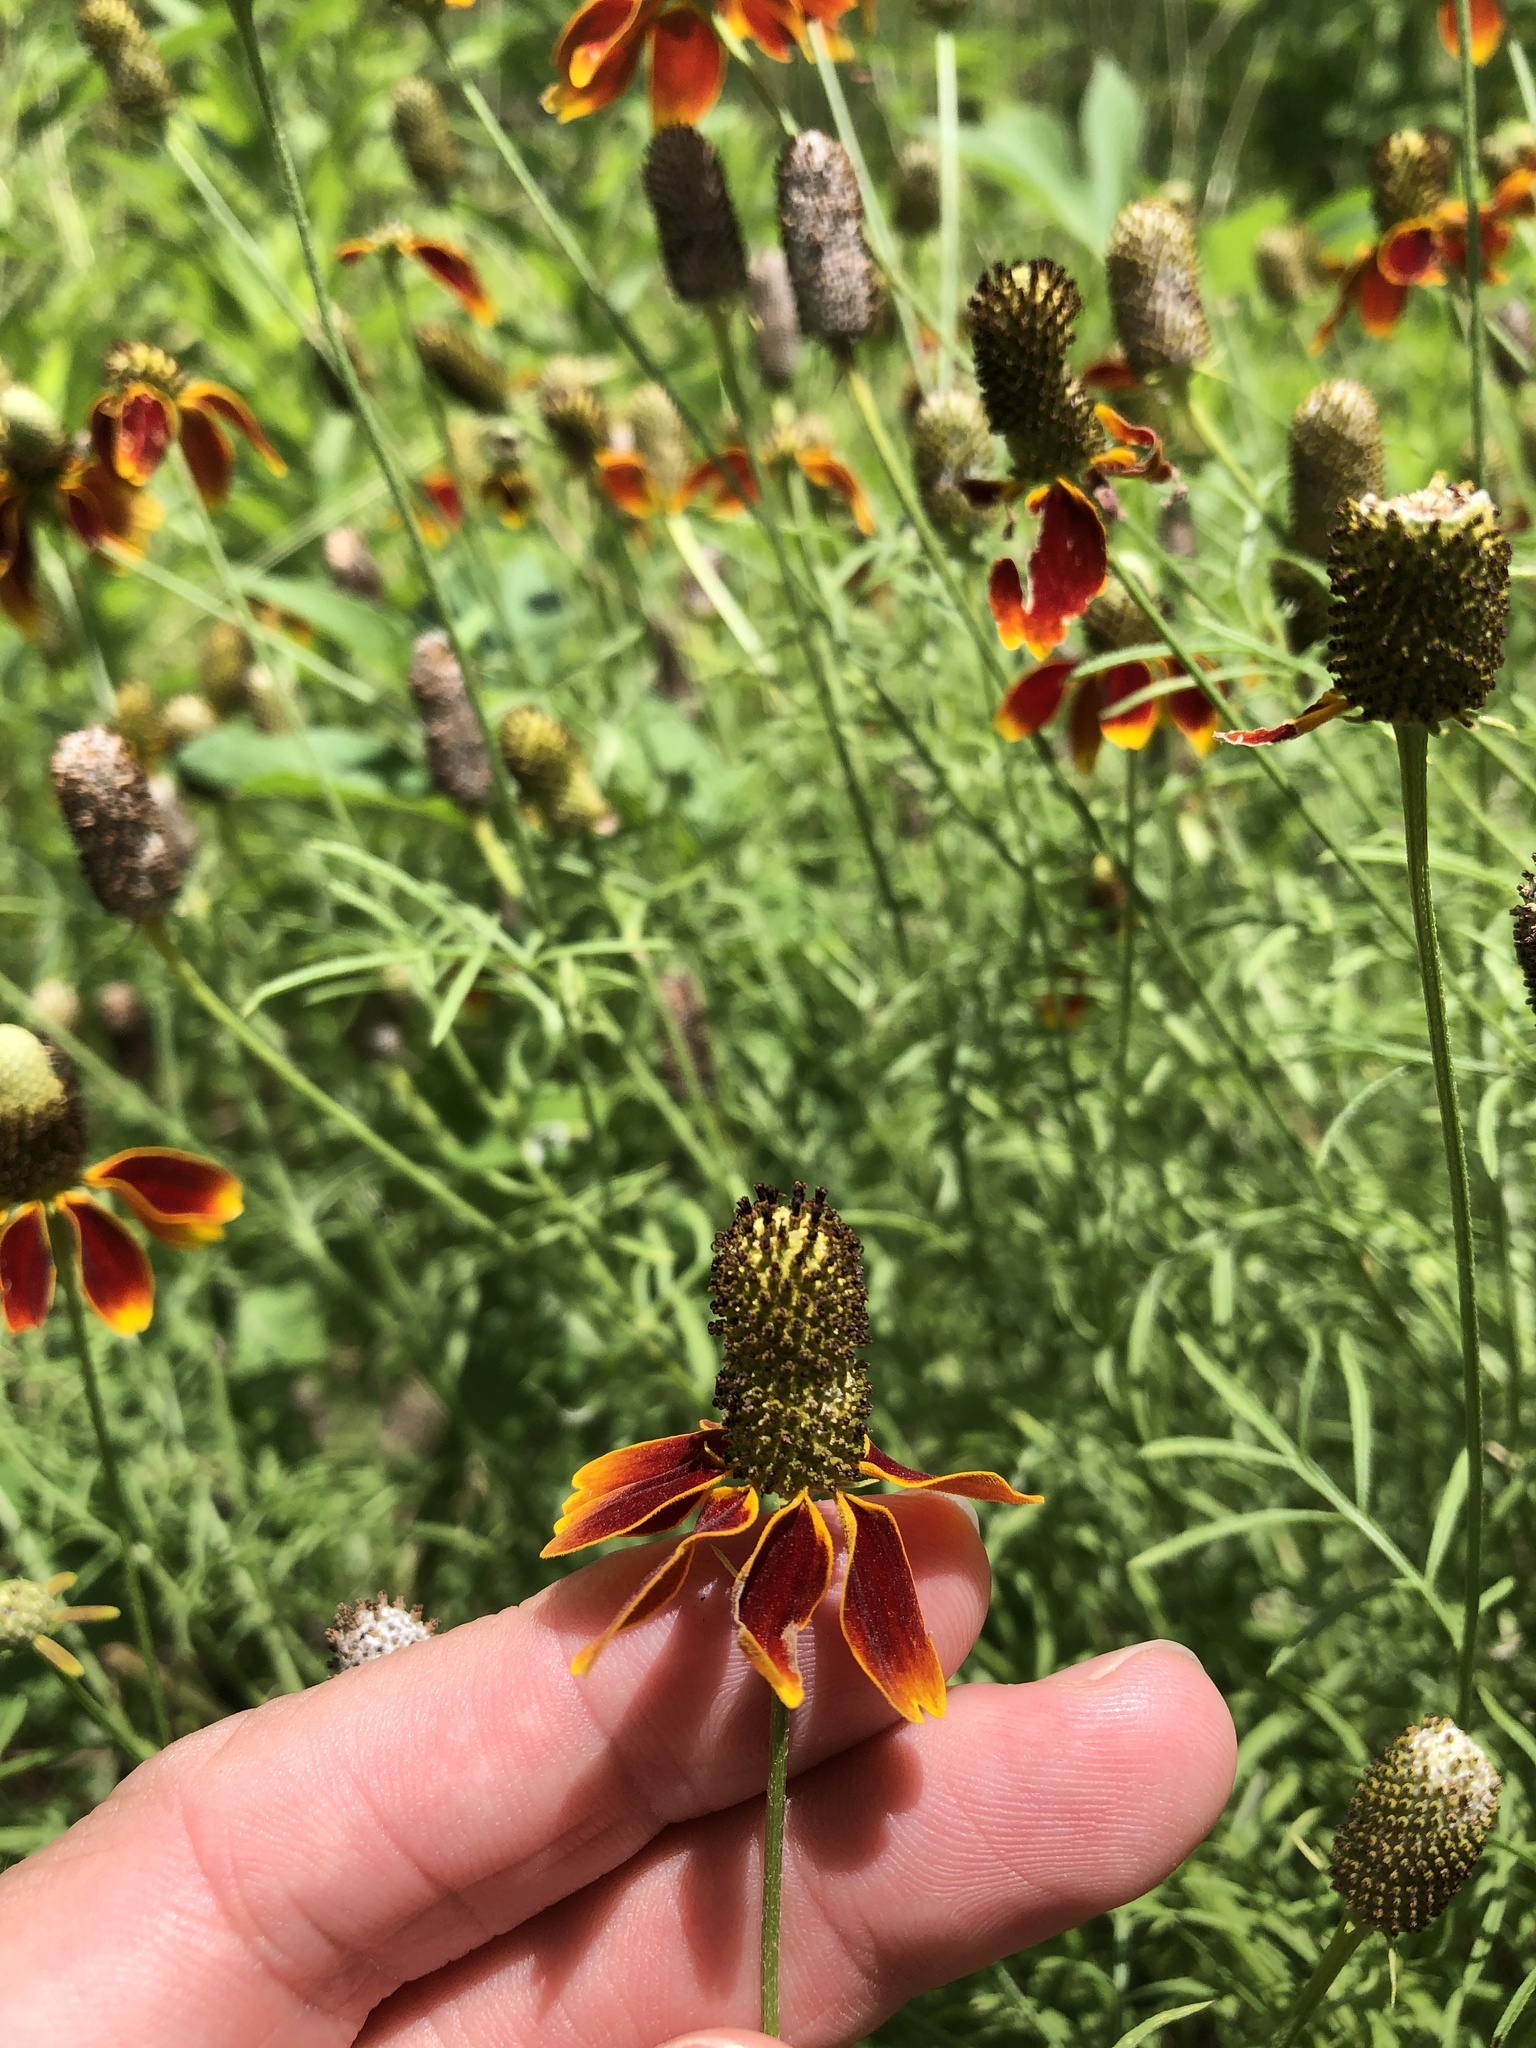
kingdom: Plantae
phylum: Tracheophyta
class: Magnoliopsida
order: Asterales
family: Asteraceae
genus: Ratibida
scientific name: Ratibida columnifera
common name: Prairie coneflower
